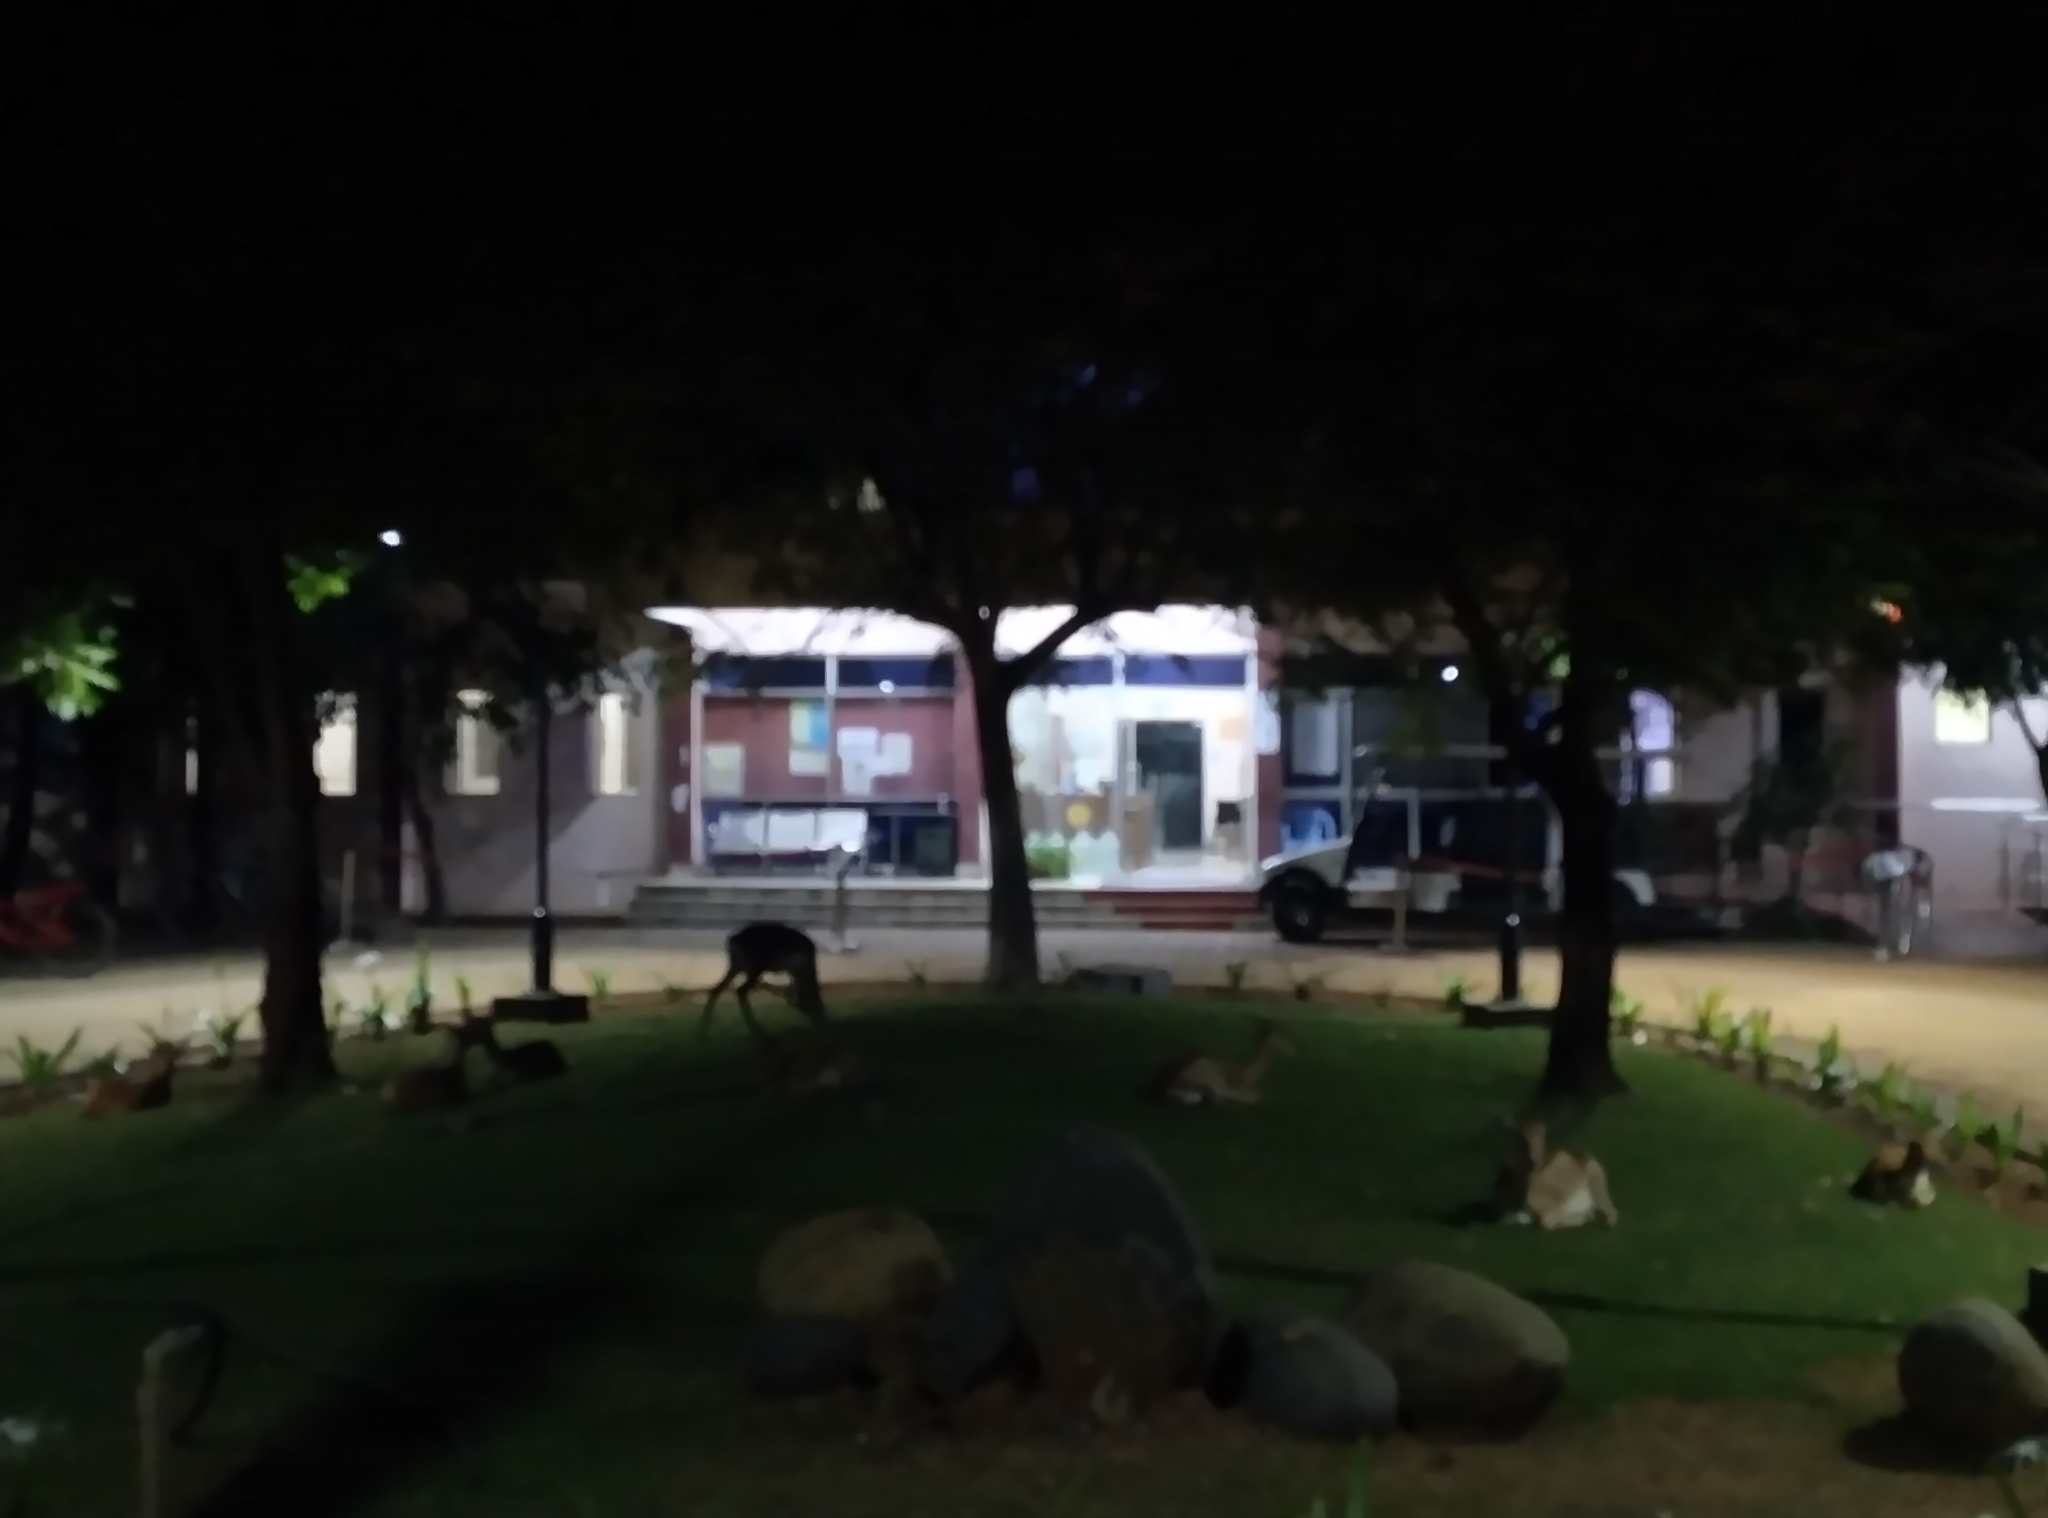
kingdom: Animalia
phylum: Chordata
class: Mammalia
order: Artiodactyla
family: Bovidae
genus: Antilope
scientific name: Antilope cervicapra
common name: Blackbuck
